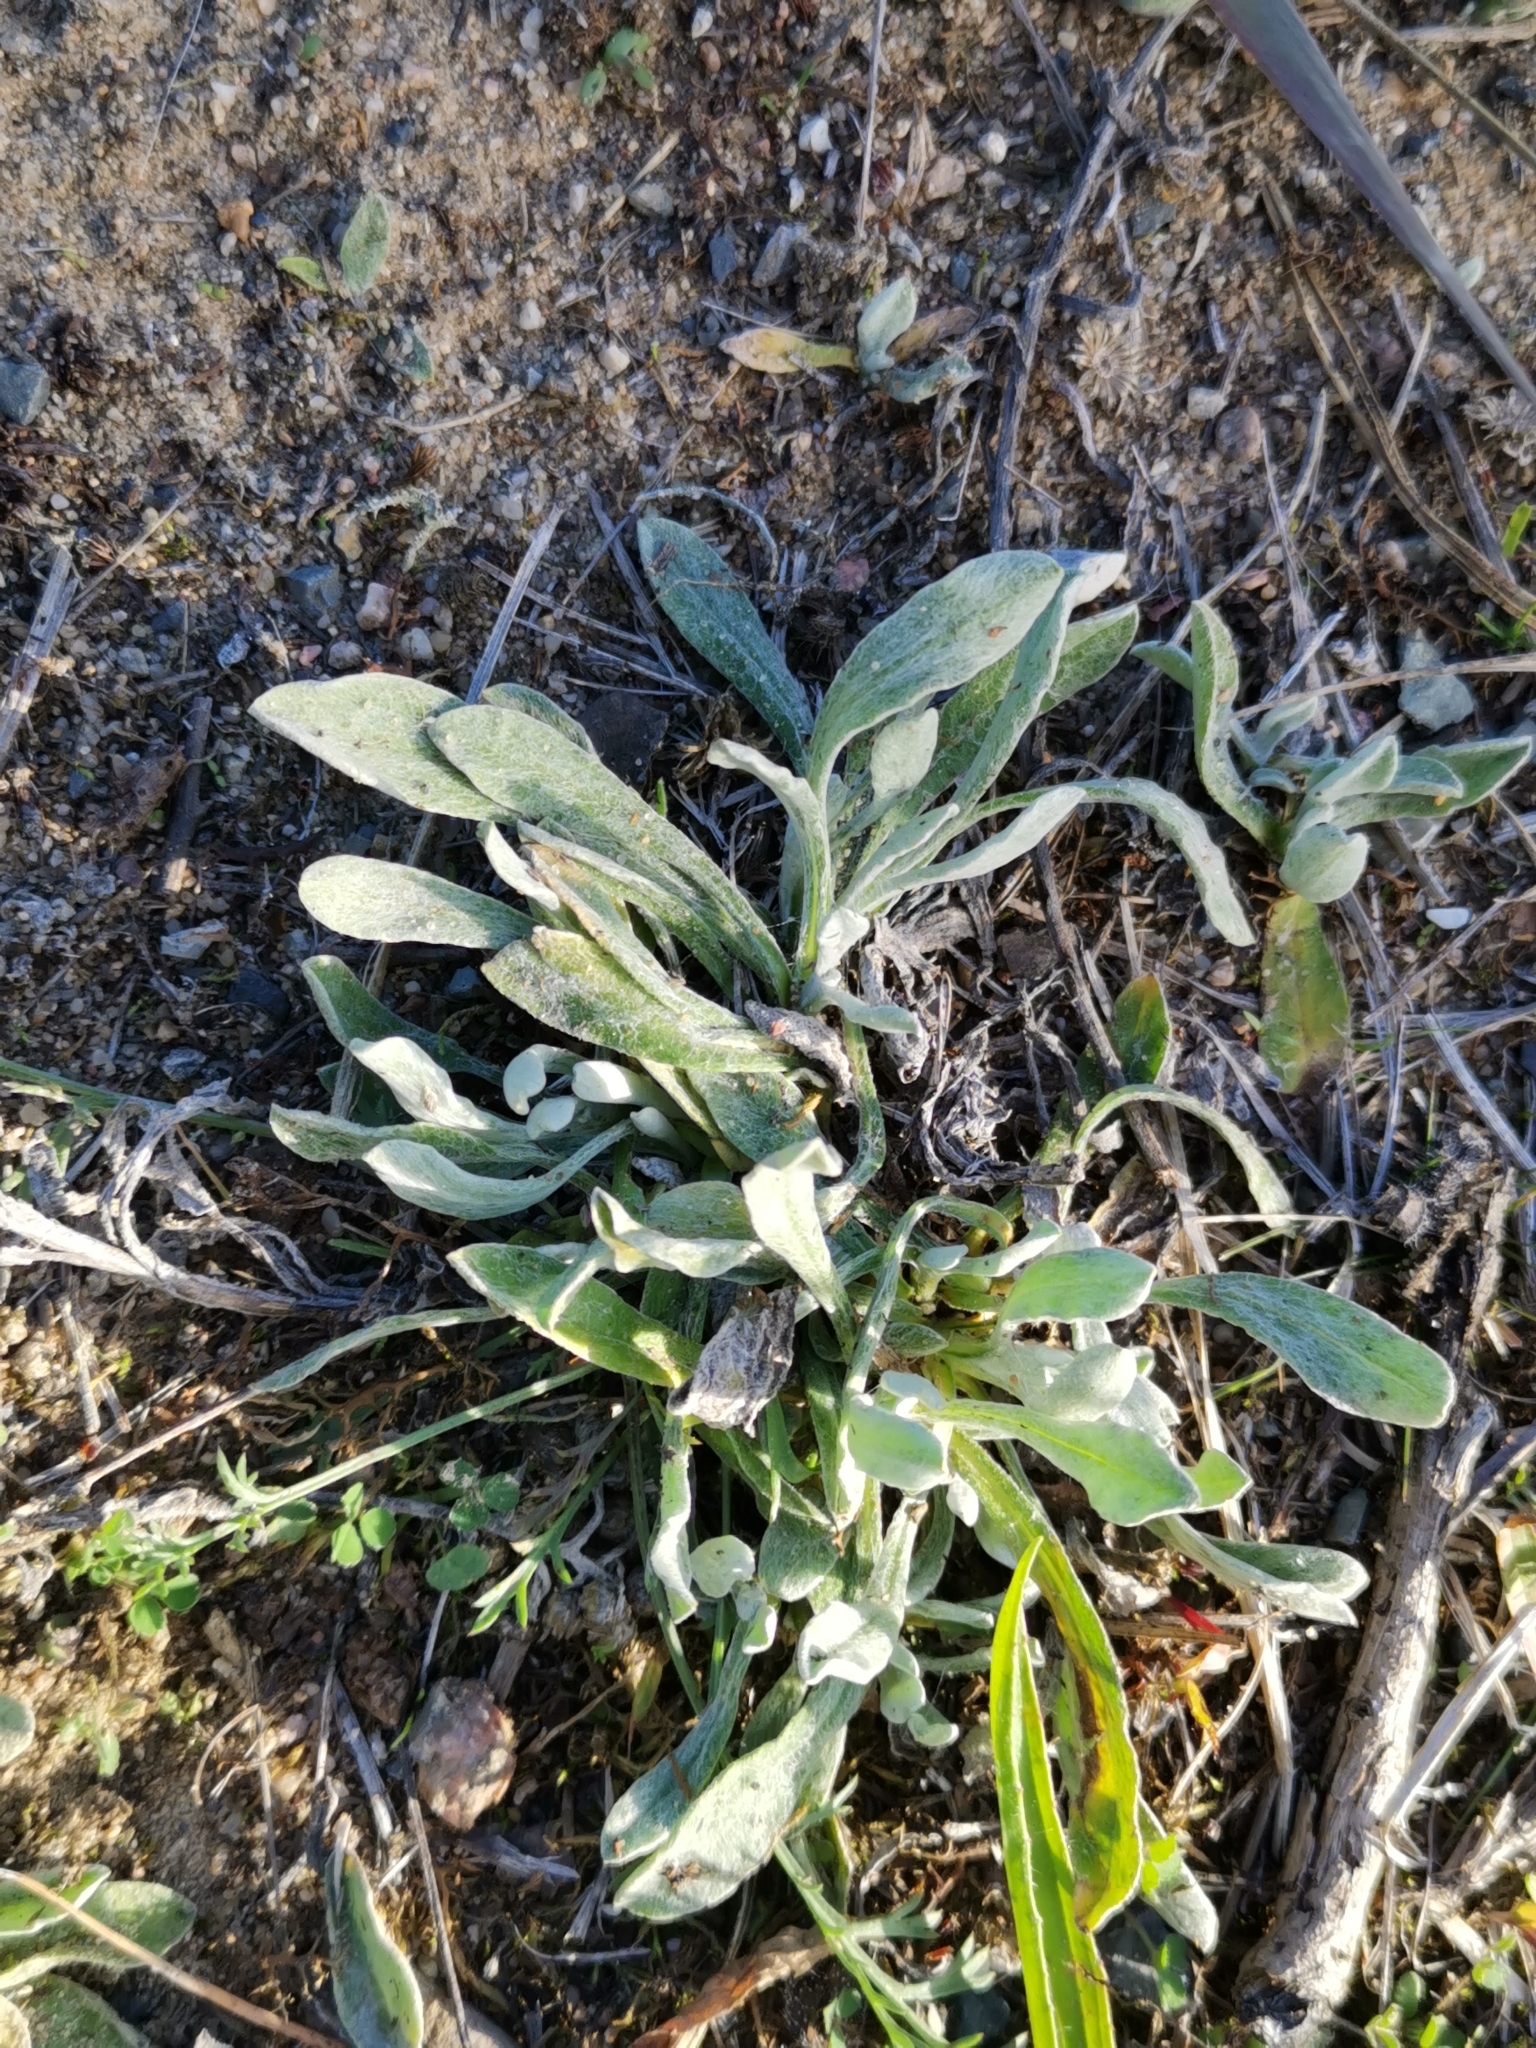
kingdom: Plantae
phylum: Tracheophyta
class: Magnoliopsida
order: Asterales
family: Asteraceae
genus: Helichrysum
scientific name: Helichrysum arenarium
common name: Strawflower
